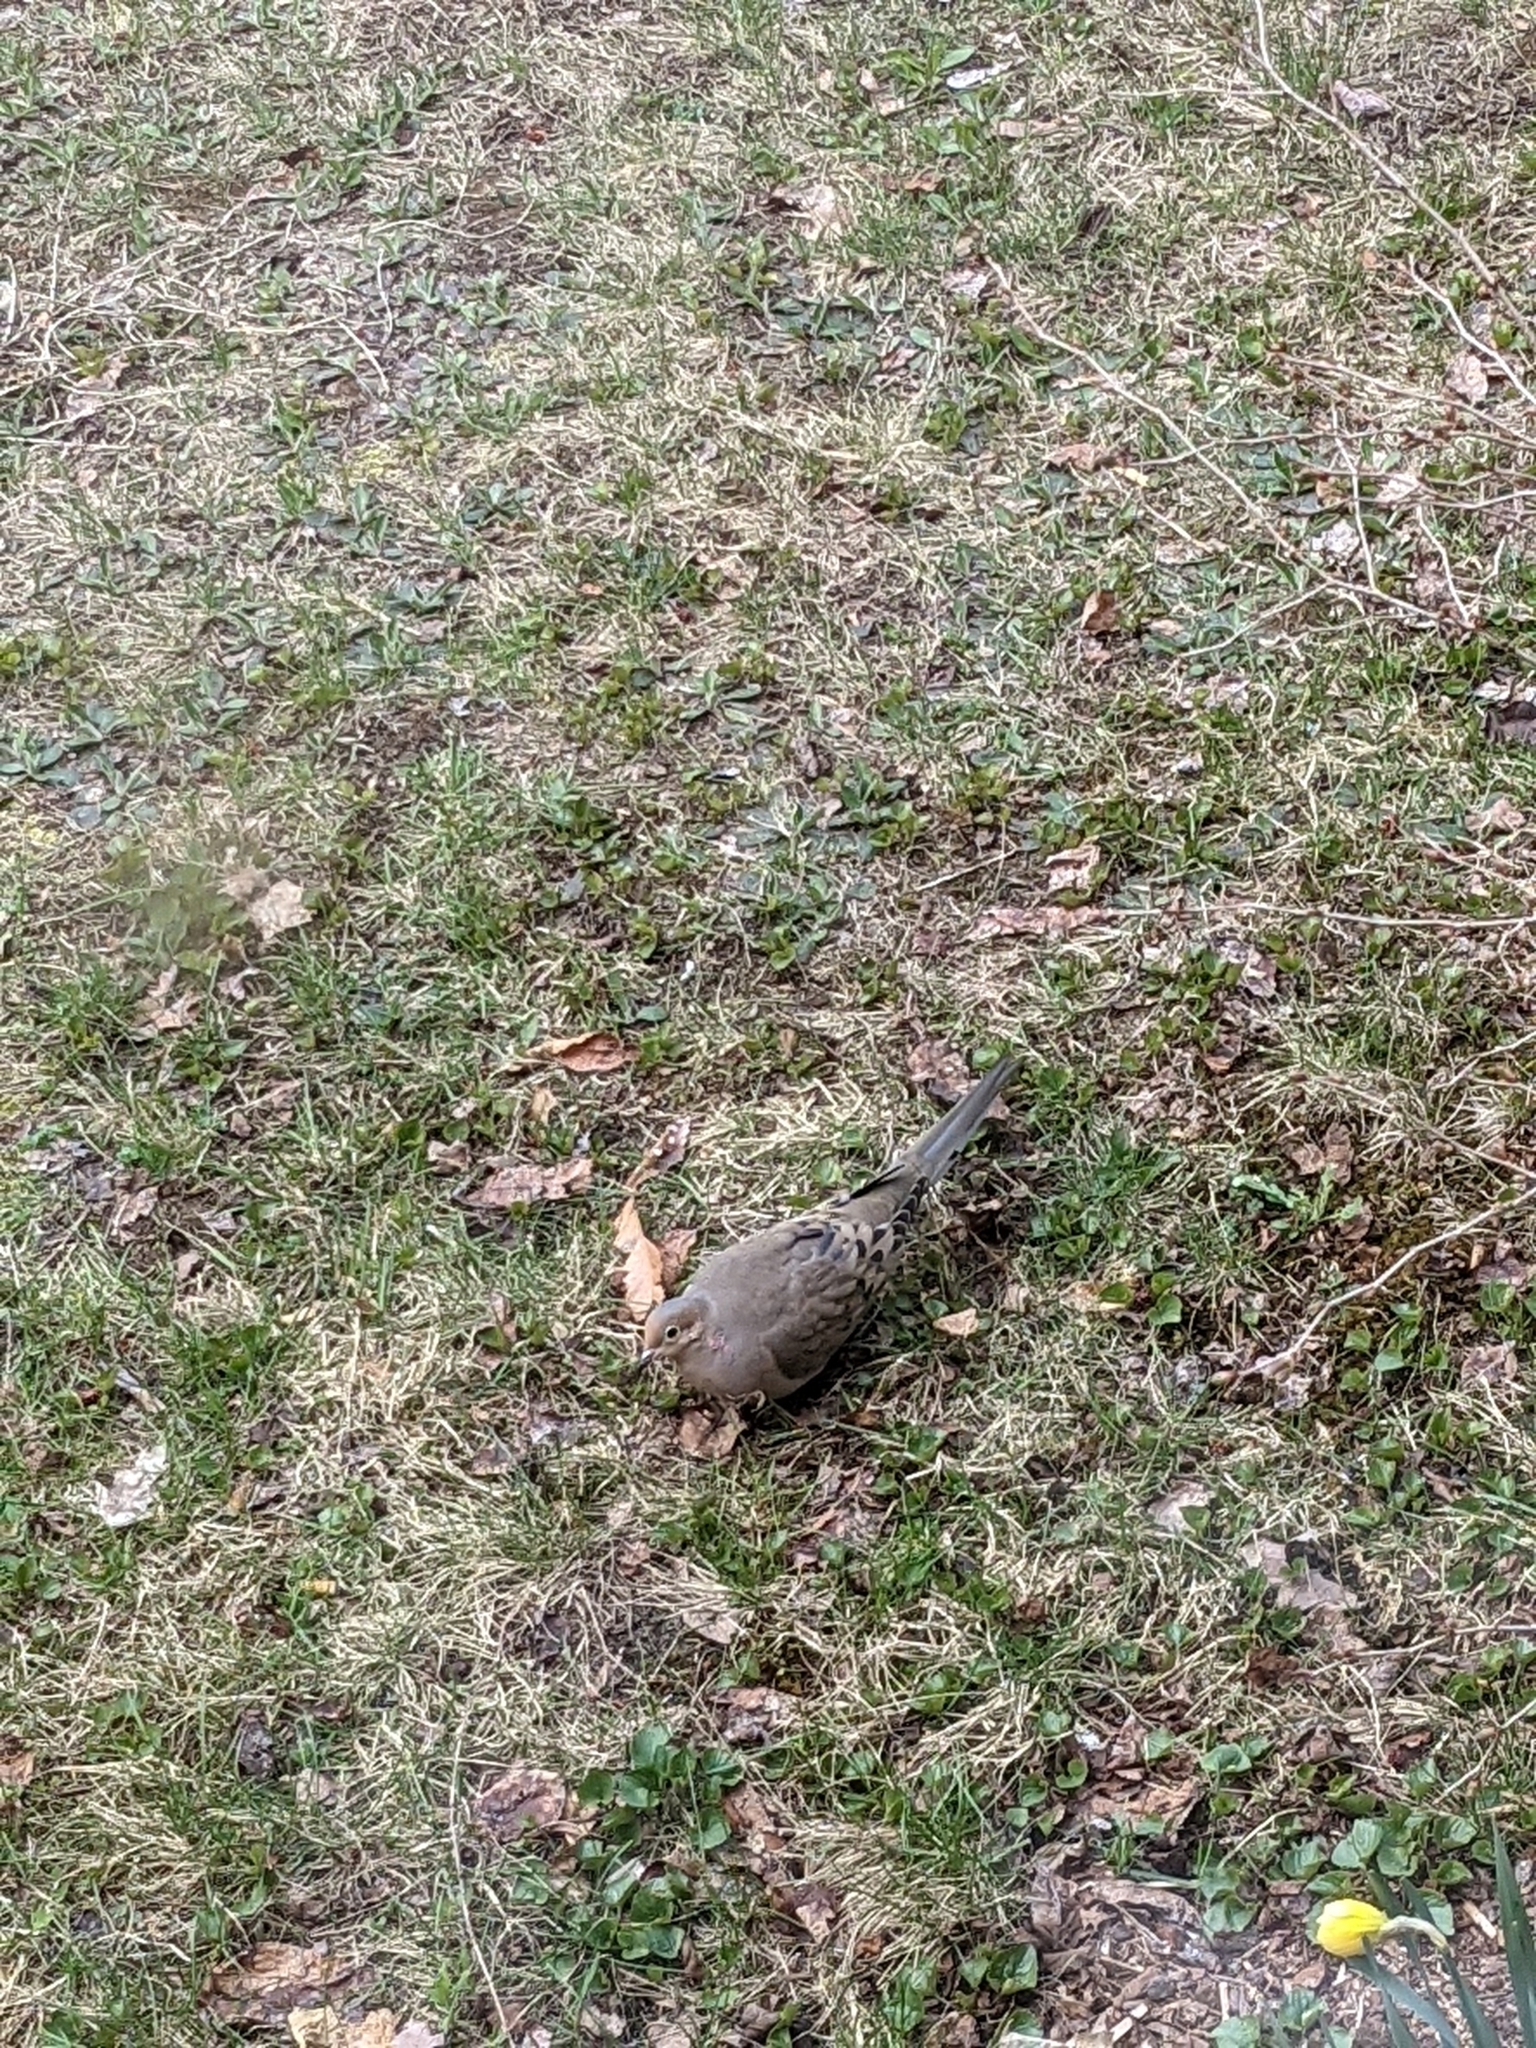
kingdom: Animalia
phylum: Chordata
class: Aves
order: Columbiformes
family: Columbidae
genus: Zenaida
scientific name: Zenaida macroura
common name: Mourning dove
